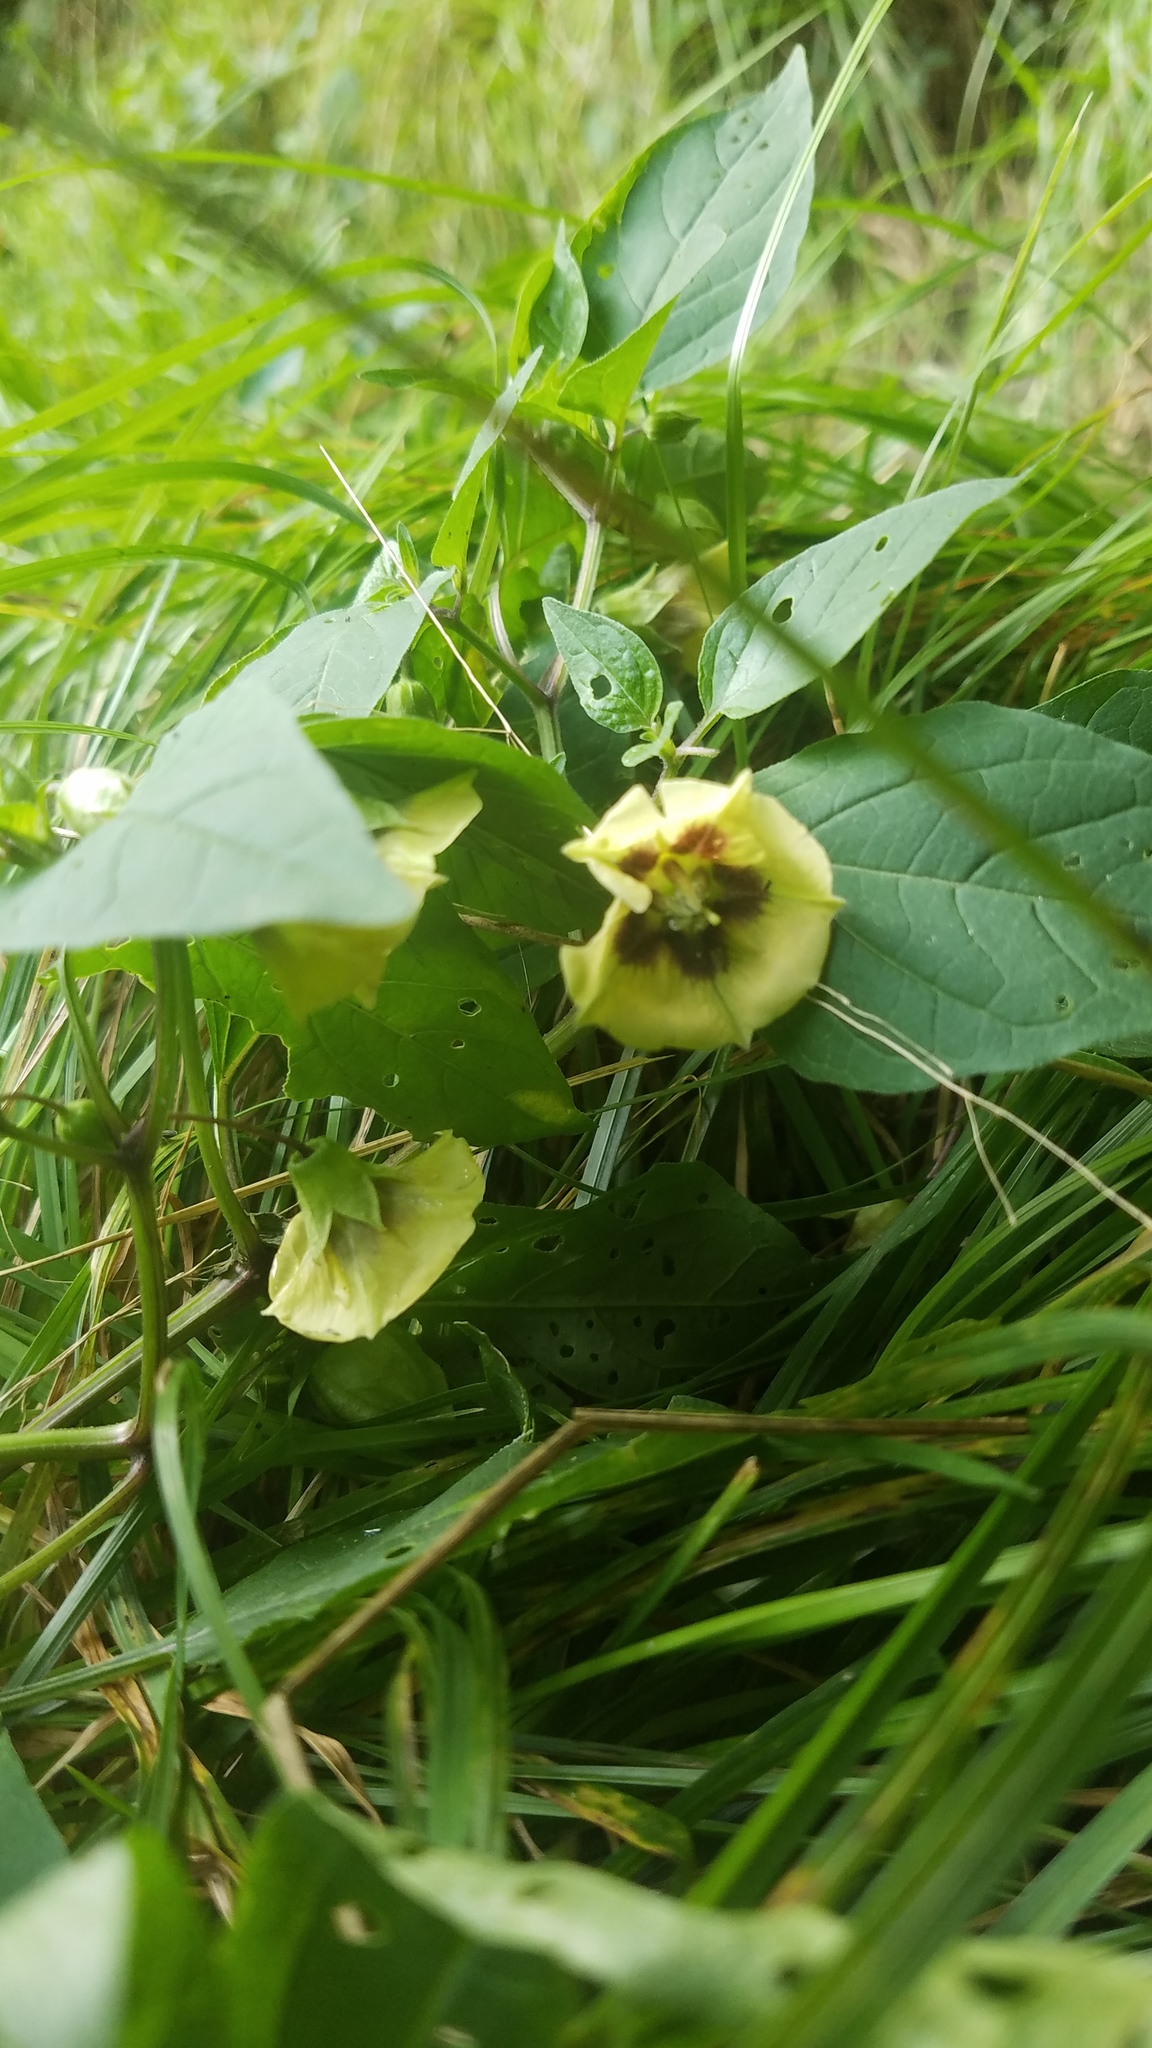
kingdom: Plantae
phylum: Tracheophyta
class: Magnoliopsida
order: Solanales
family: Solanaceae
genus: Physalis
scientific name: Physalis longifolia
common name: Common ground-cherry
